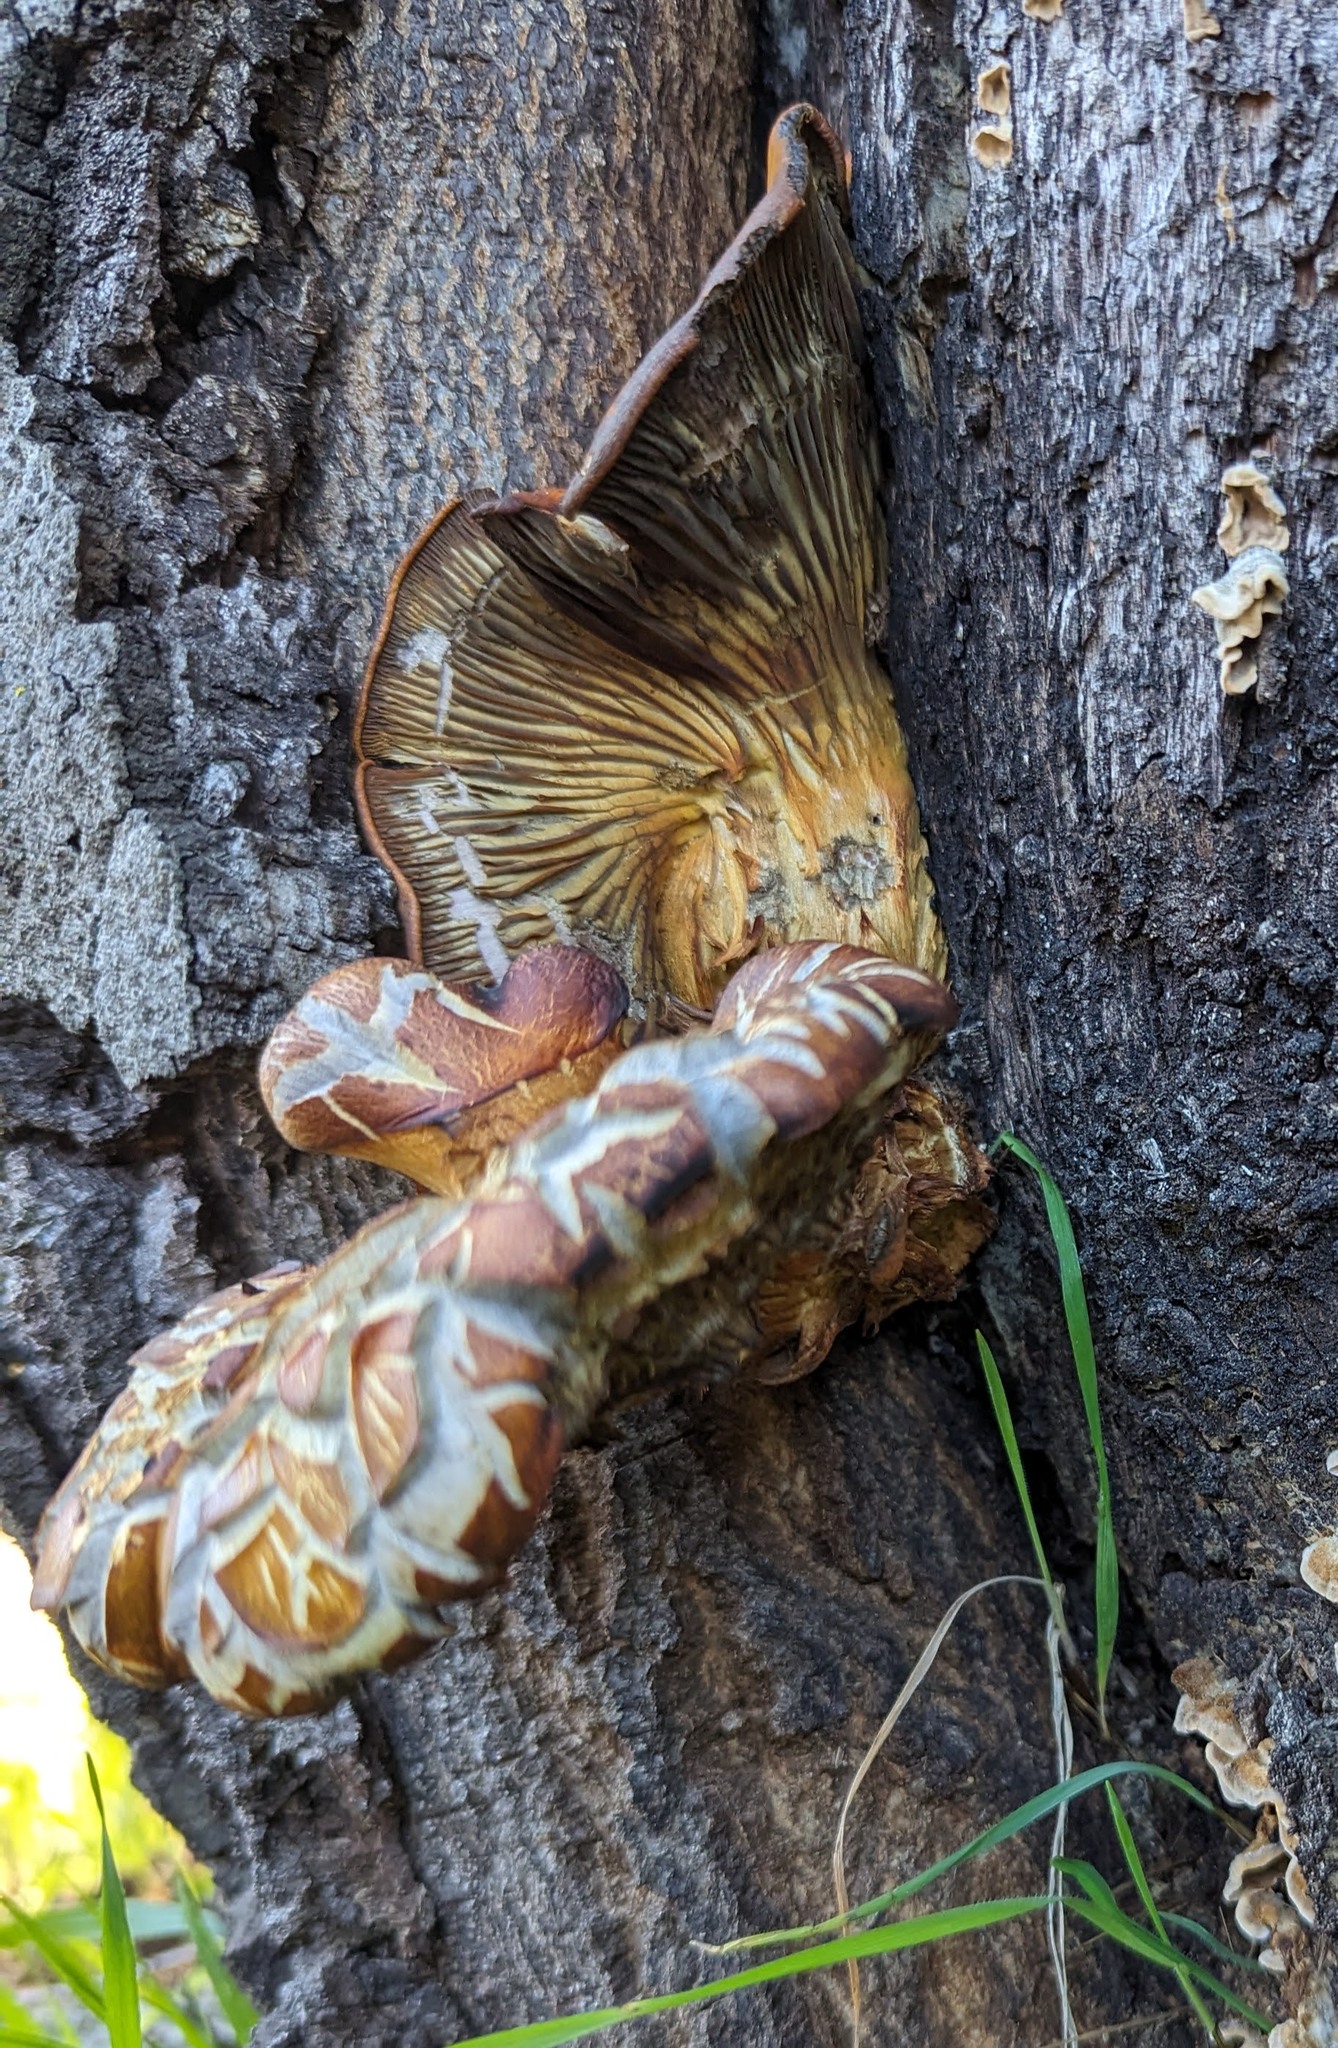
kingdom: Fungi
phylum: Basidiomycota
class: Agaricomycetes
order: Agaricales
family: Omphalotaceae
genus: Omphalotus
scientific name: Omphalotus olivascens
